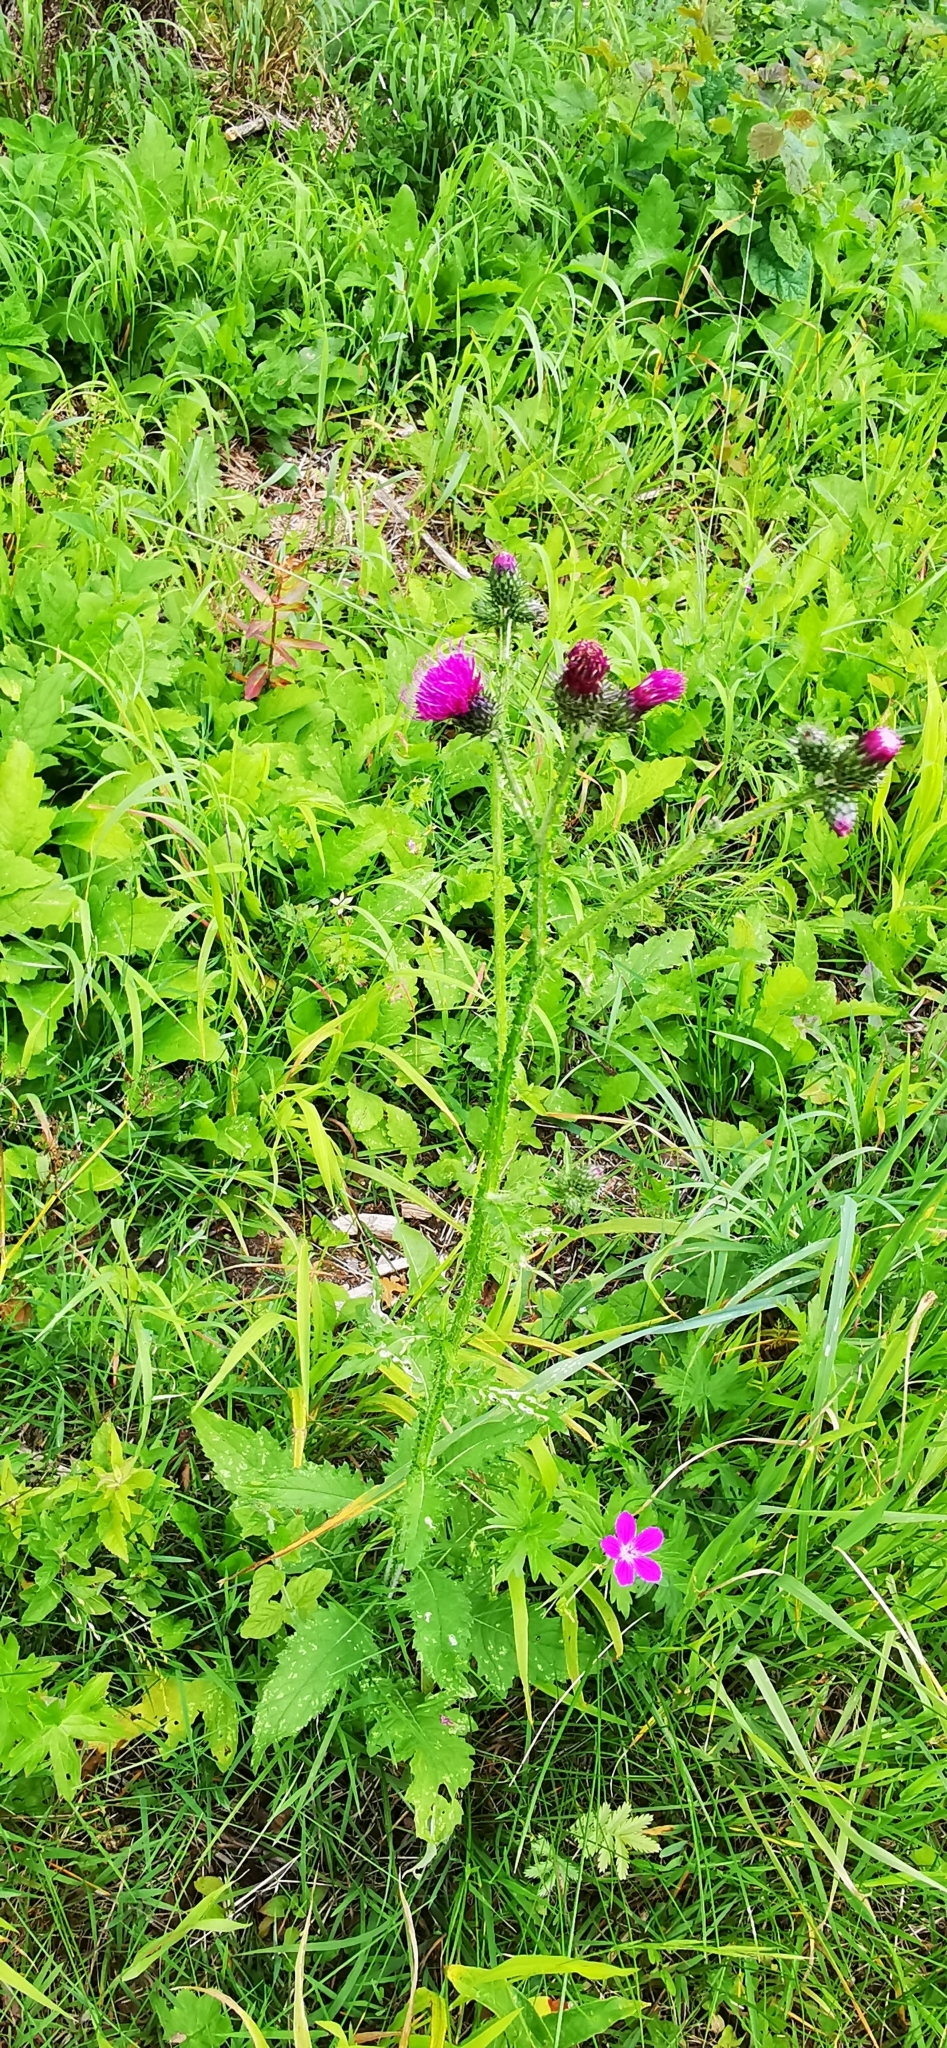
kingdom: Plantae
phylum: Tracheophyta
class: Magnoliopsida
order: Asterales
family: Asteraceae
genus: Carduus
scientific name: Carduus crispus
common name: Welted thistle
